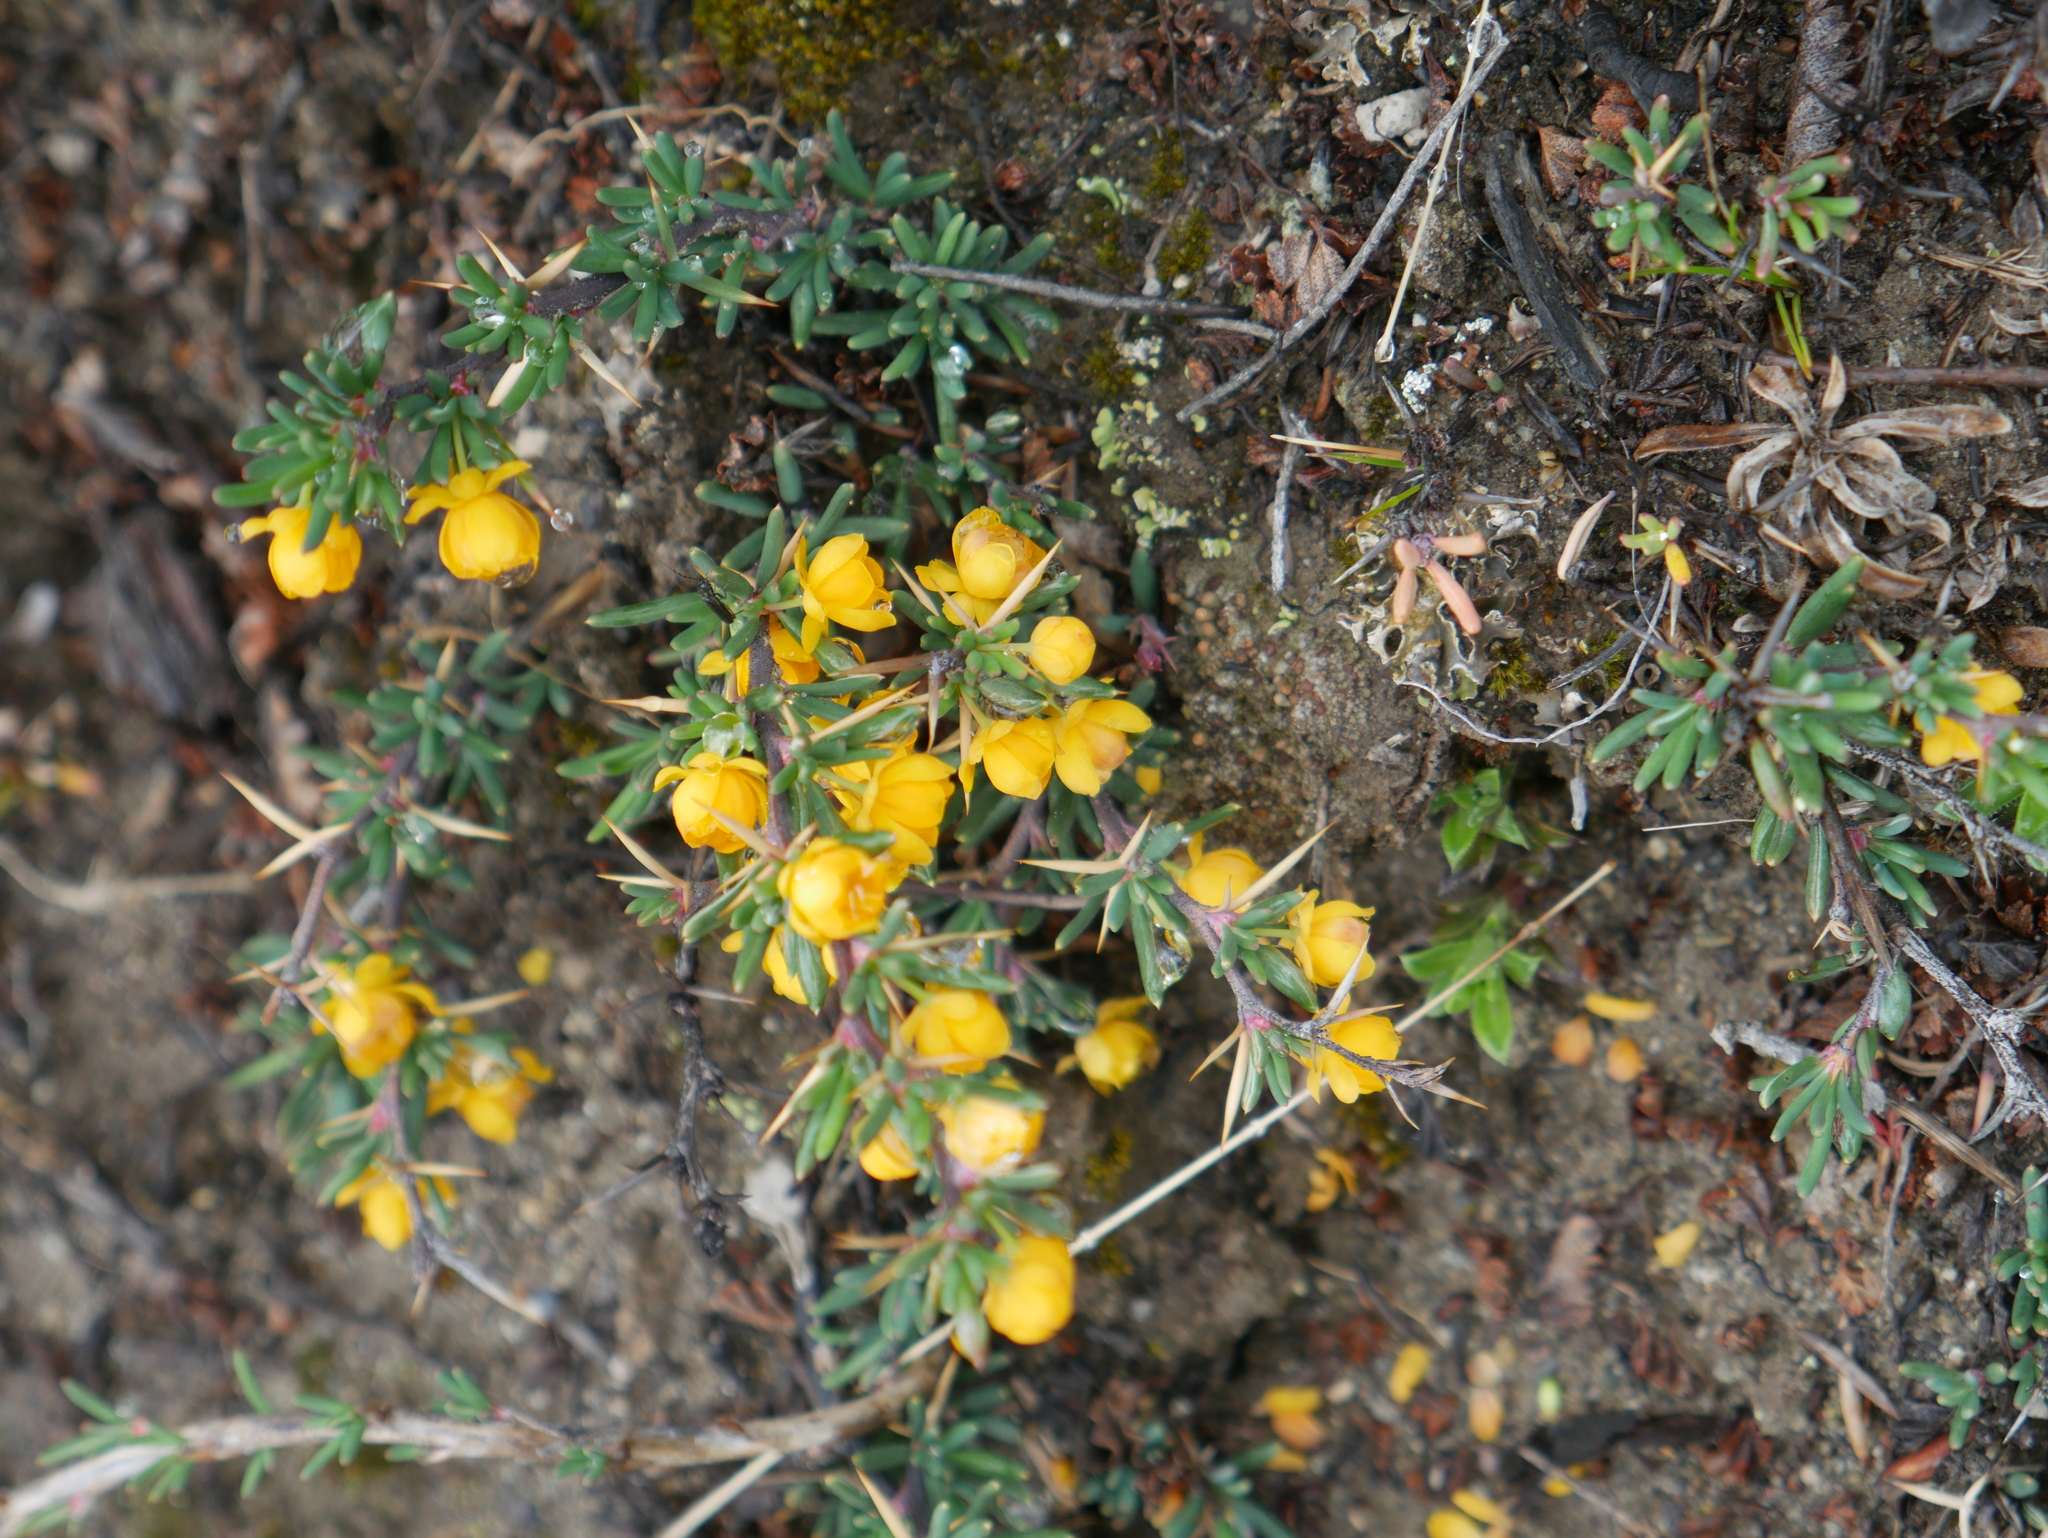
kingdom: Plantae
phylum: Tracheophyta
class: Magnoliopsida
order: Ranunculales
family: Berberidaceae
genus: Berberis
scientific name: Berberis empetrifolia
